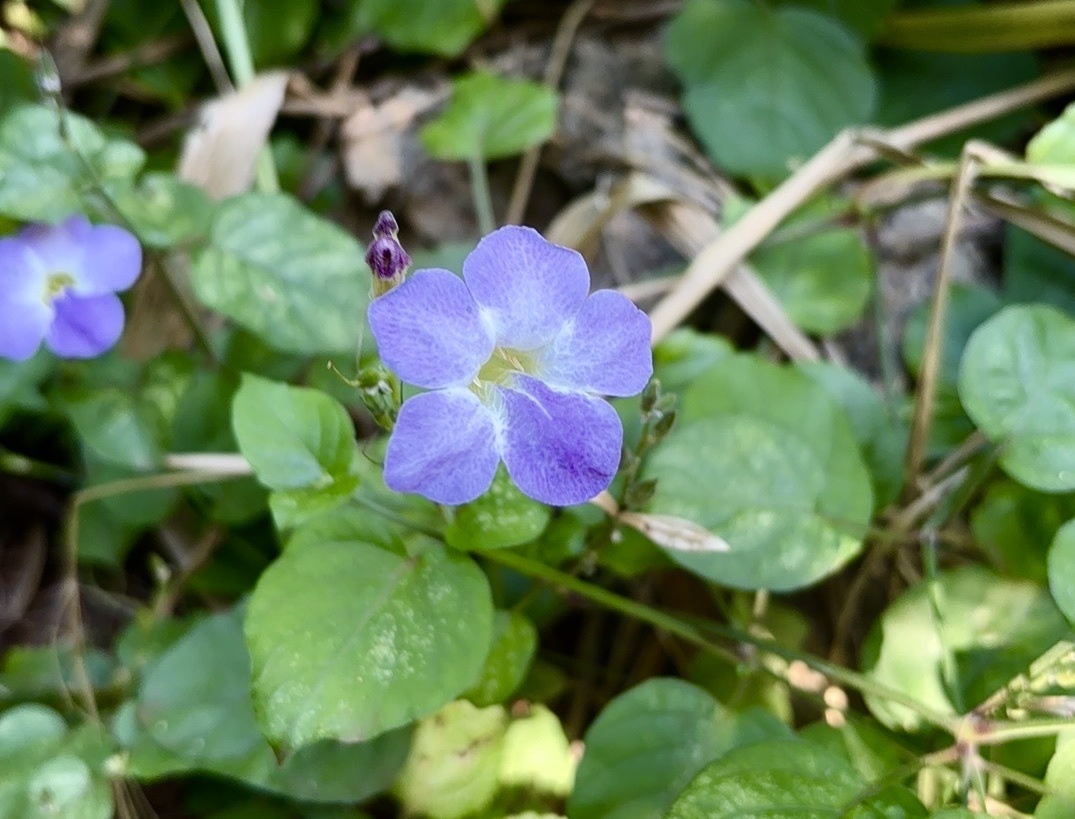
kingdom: Plantae
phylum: Tracheophyta
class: Magnoliopsida
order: Lamiales
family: Acanthaceae
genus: Asystasia
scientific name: Asystasia gangetica
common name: Chinese violet
